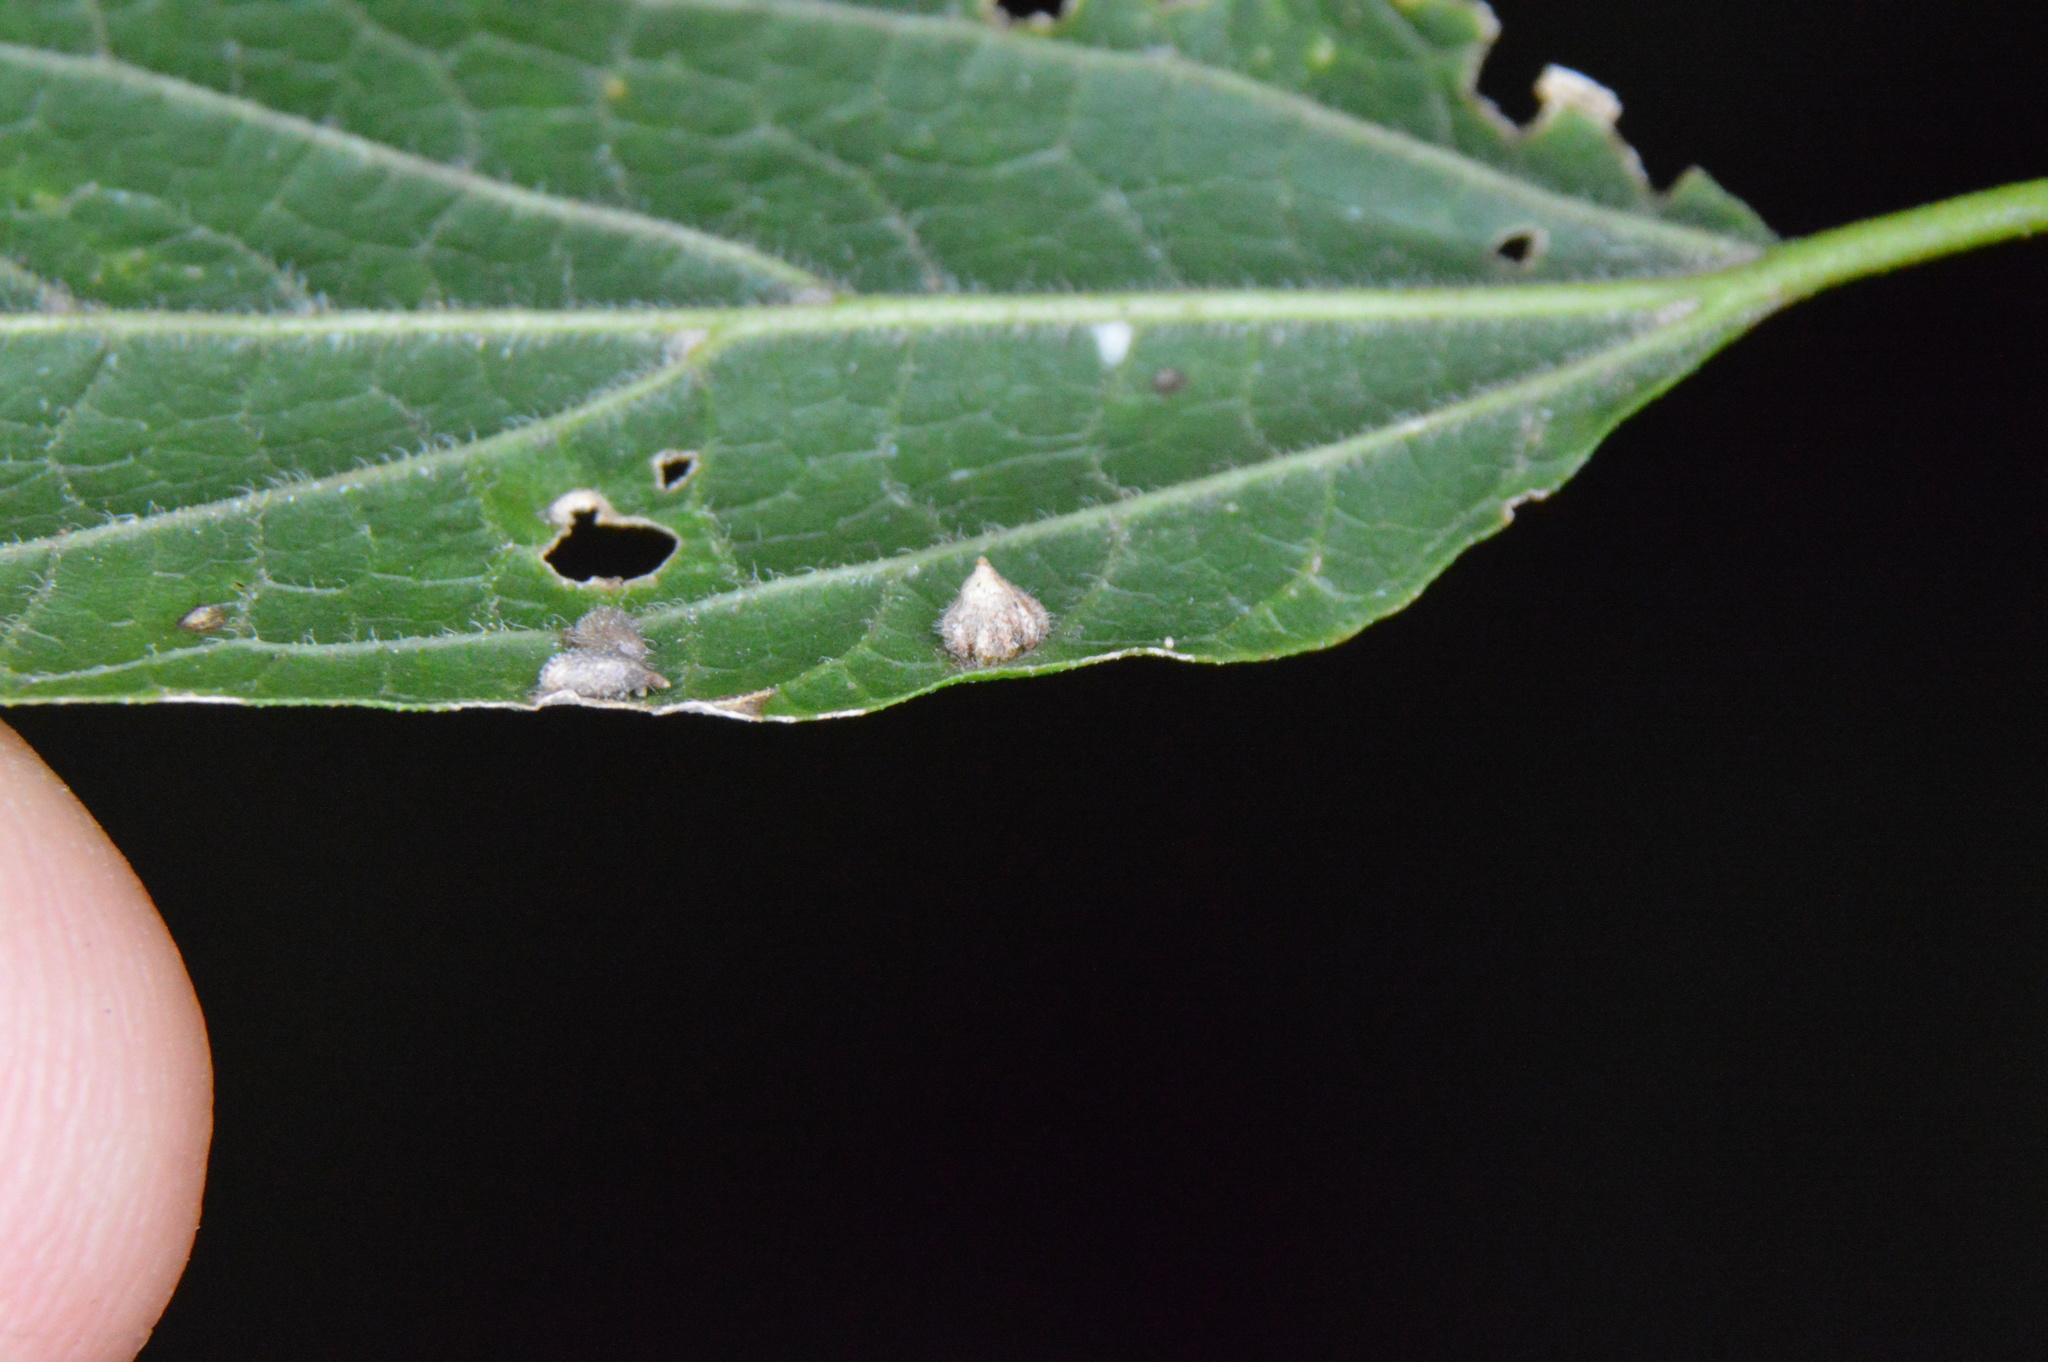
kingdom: Animalia
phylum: Arthropoda
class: Insecta
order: Diptera
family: Cecidomyiidae
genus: Celticecis
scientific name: Celticecis capsularis
